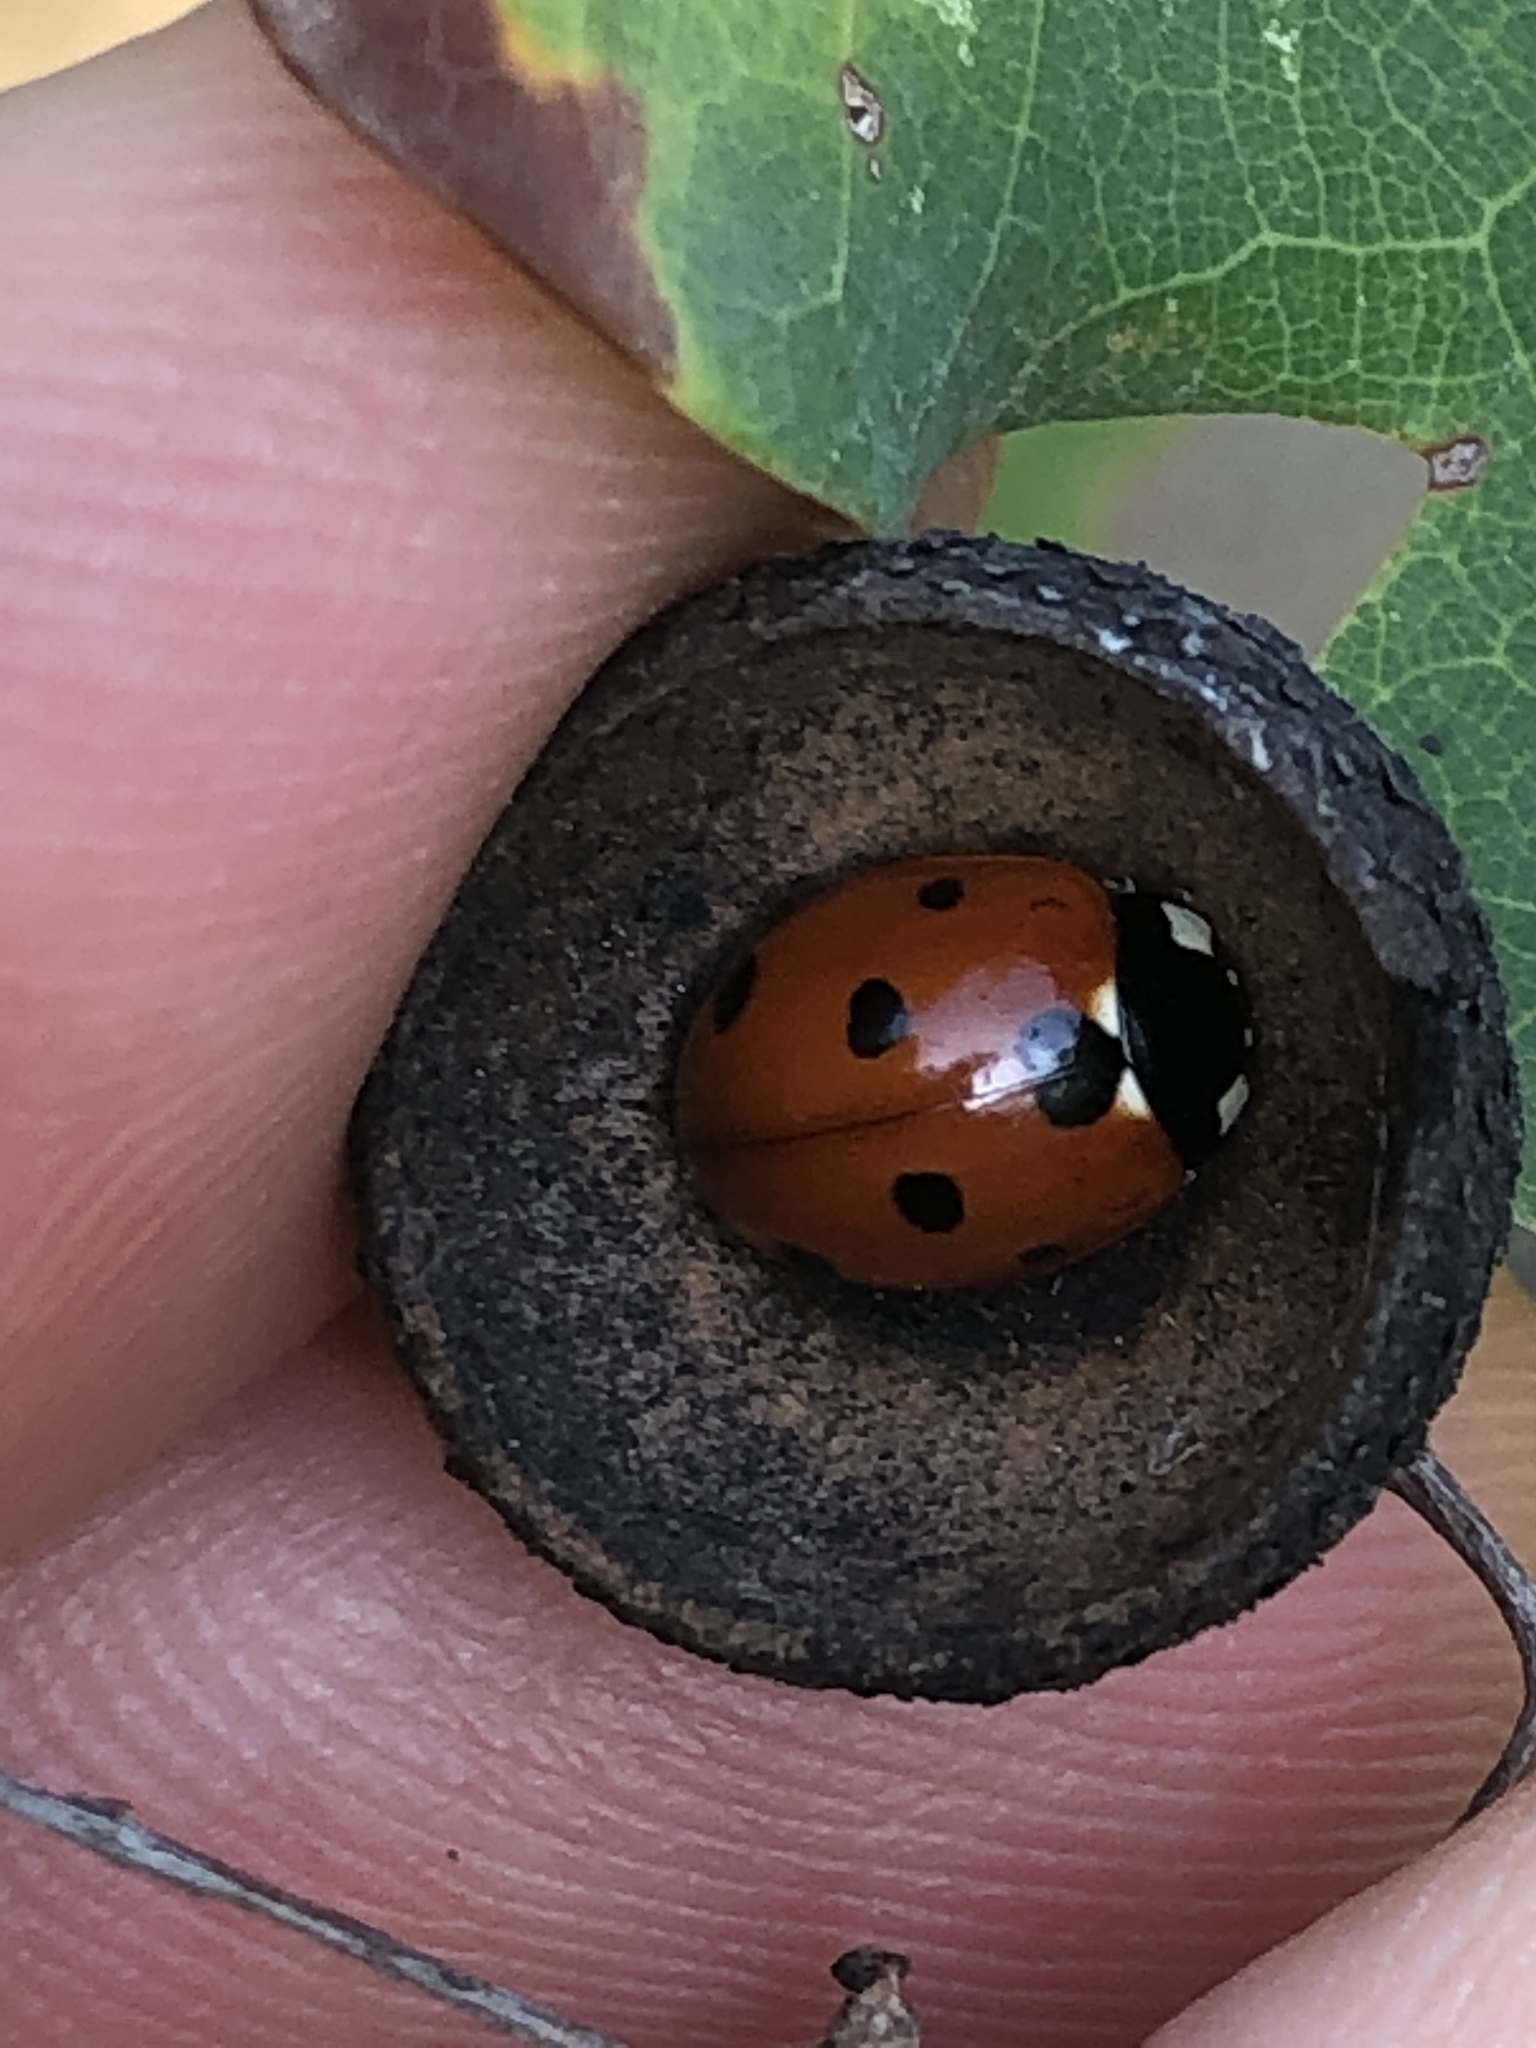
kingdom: Animalia
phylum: Arthropoda
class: Insecta
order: Coleoptera
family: Coccinellidae
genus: Coccinella
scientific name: Coccinella septempunctata
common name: Sevenspotted lady beetle
